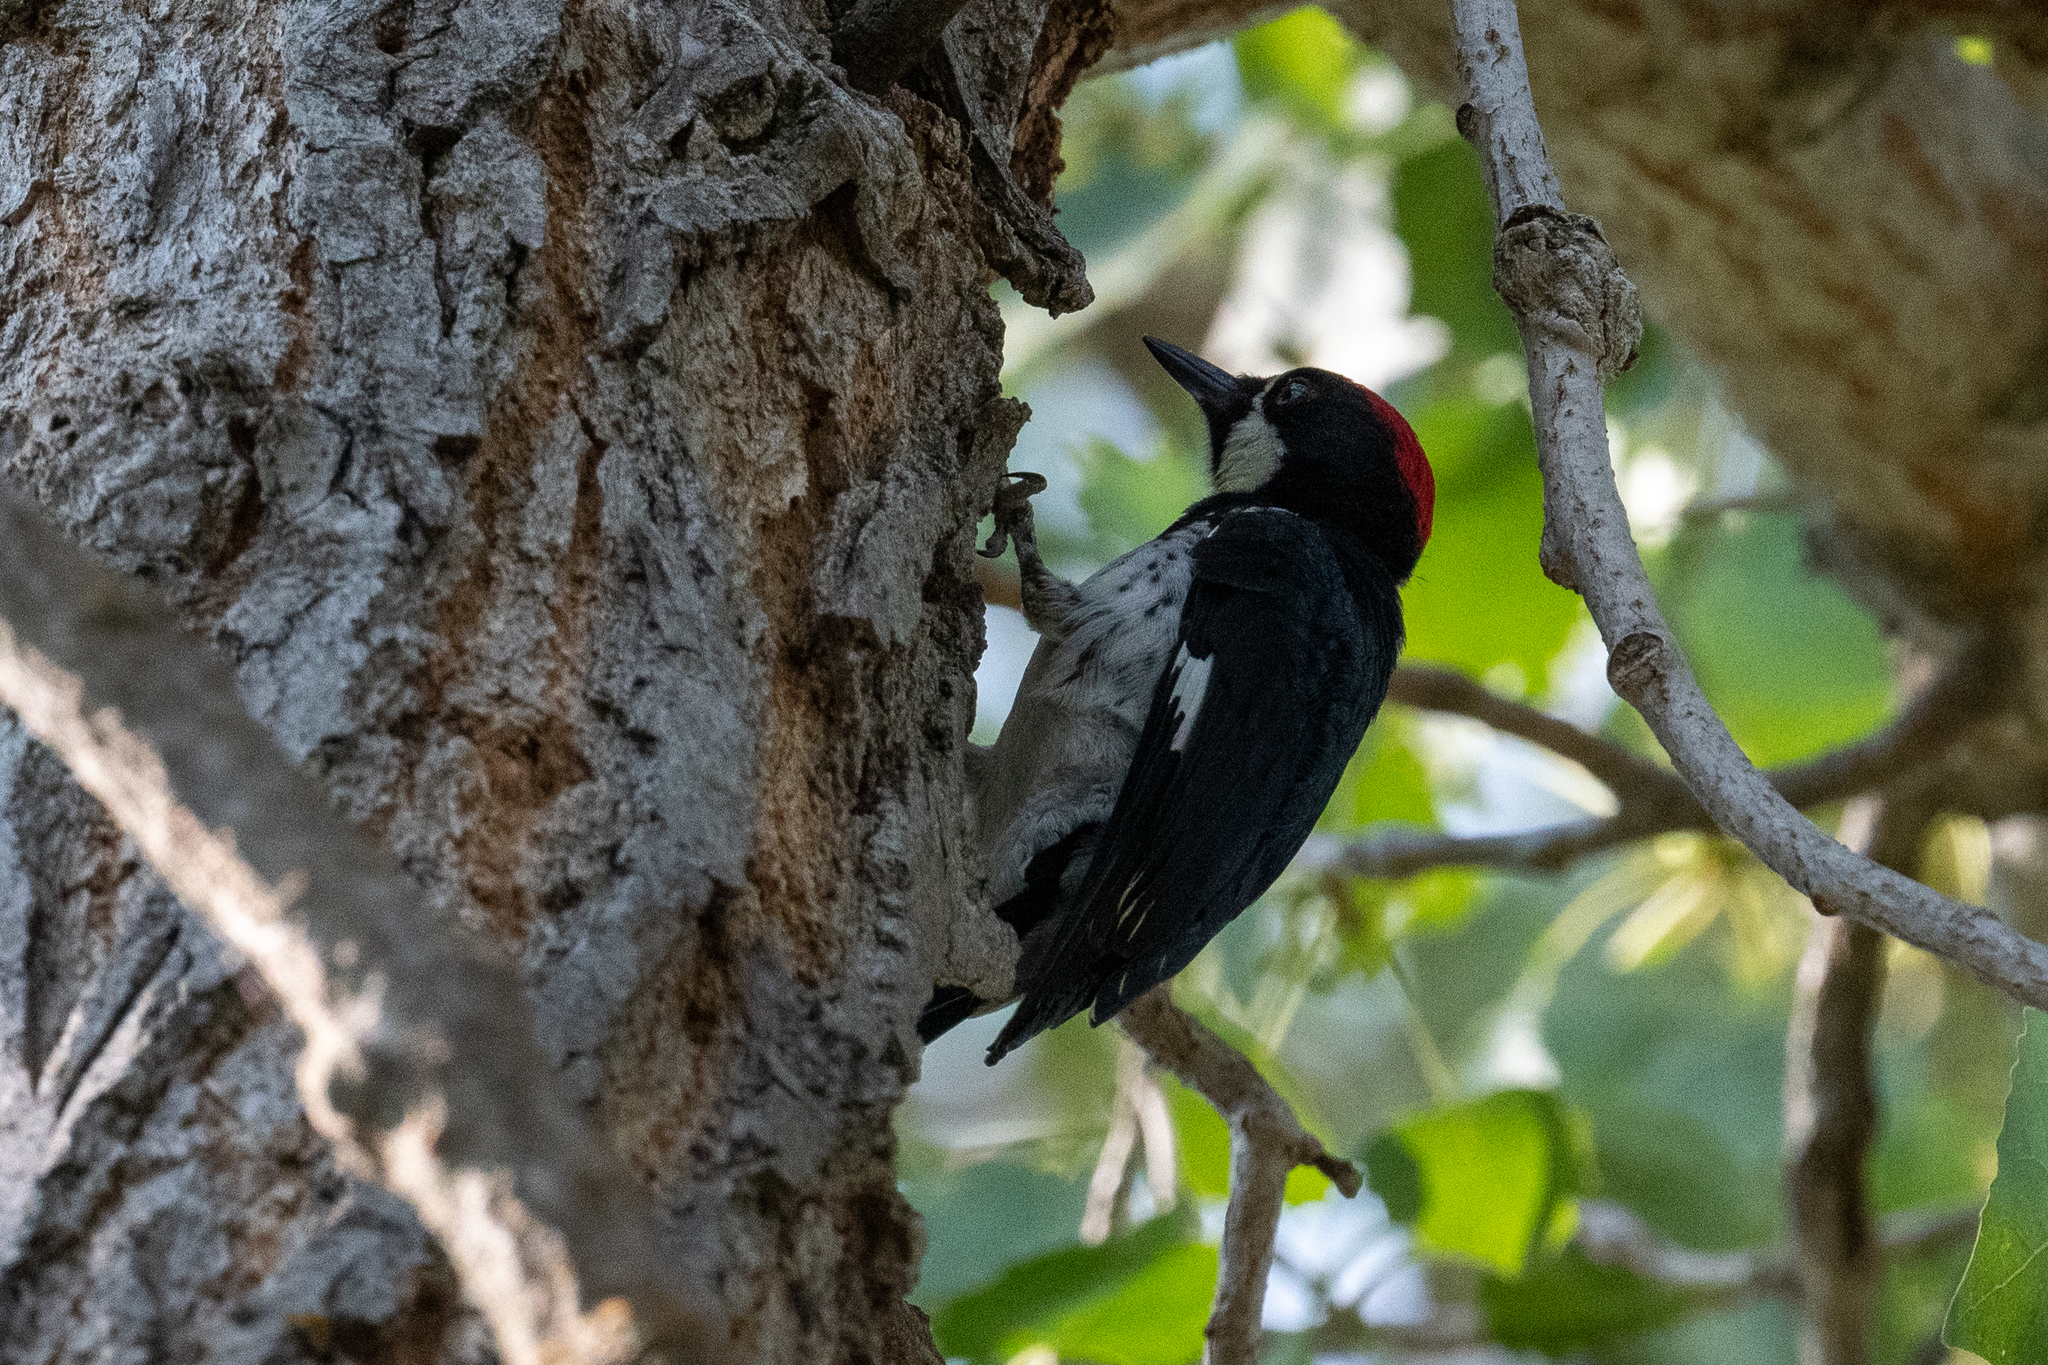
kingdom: Animalia
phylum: Chordata
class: Aves
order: Piciformes
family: Picidae
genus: Melanerpes
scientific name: Melanerpes formicivorus
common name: Acorn woodpecker
